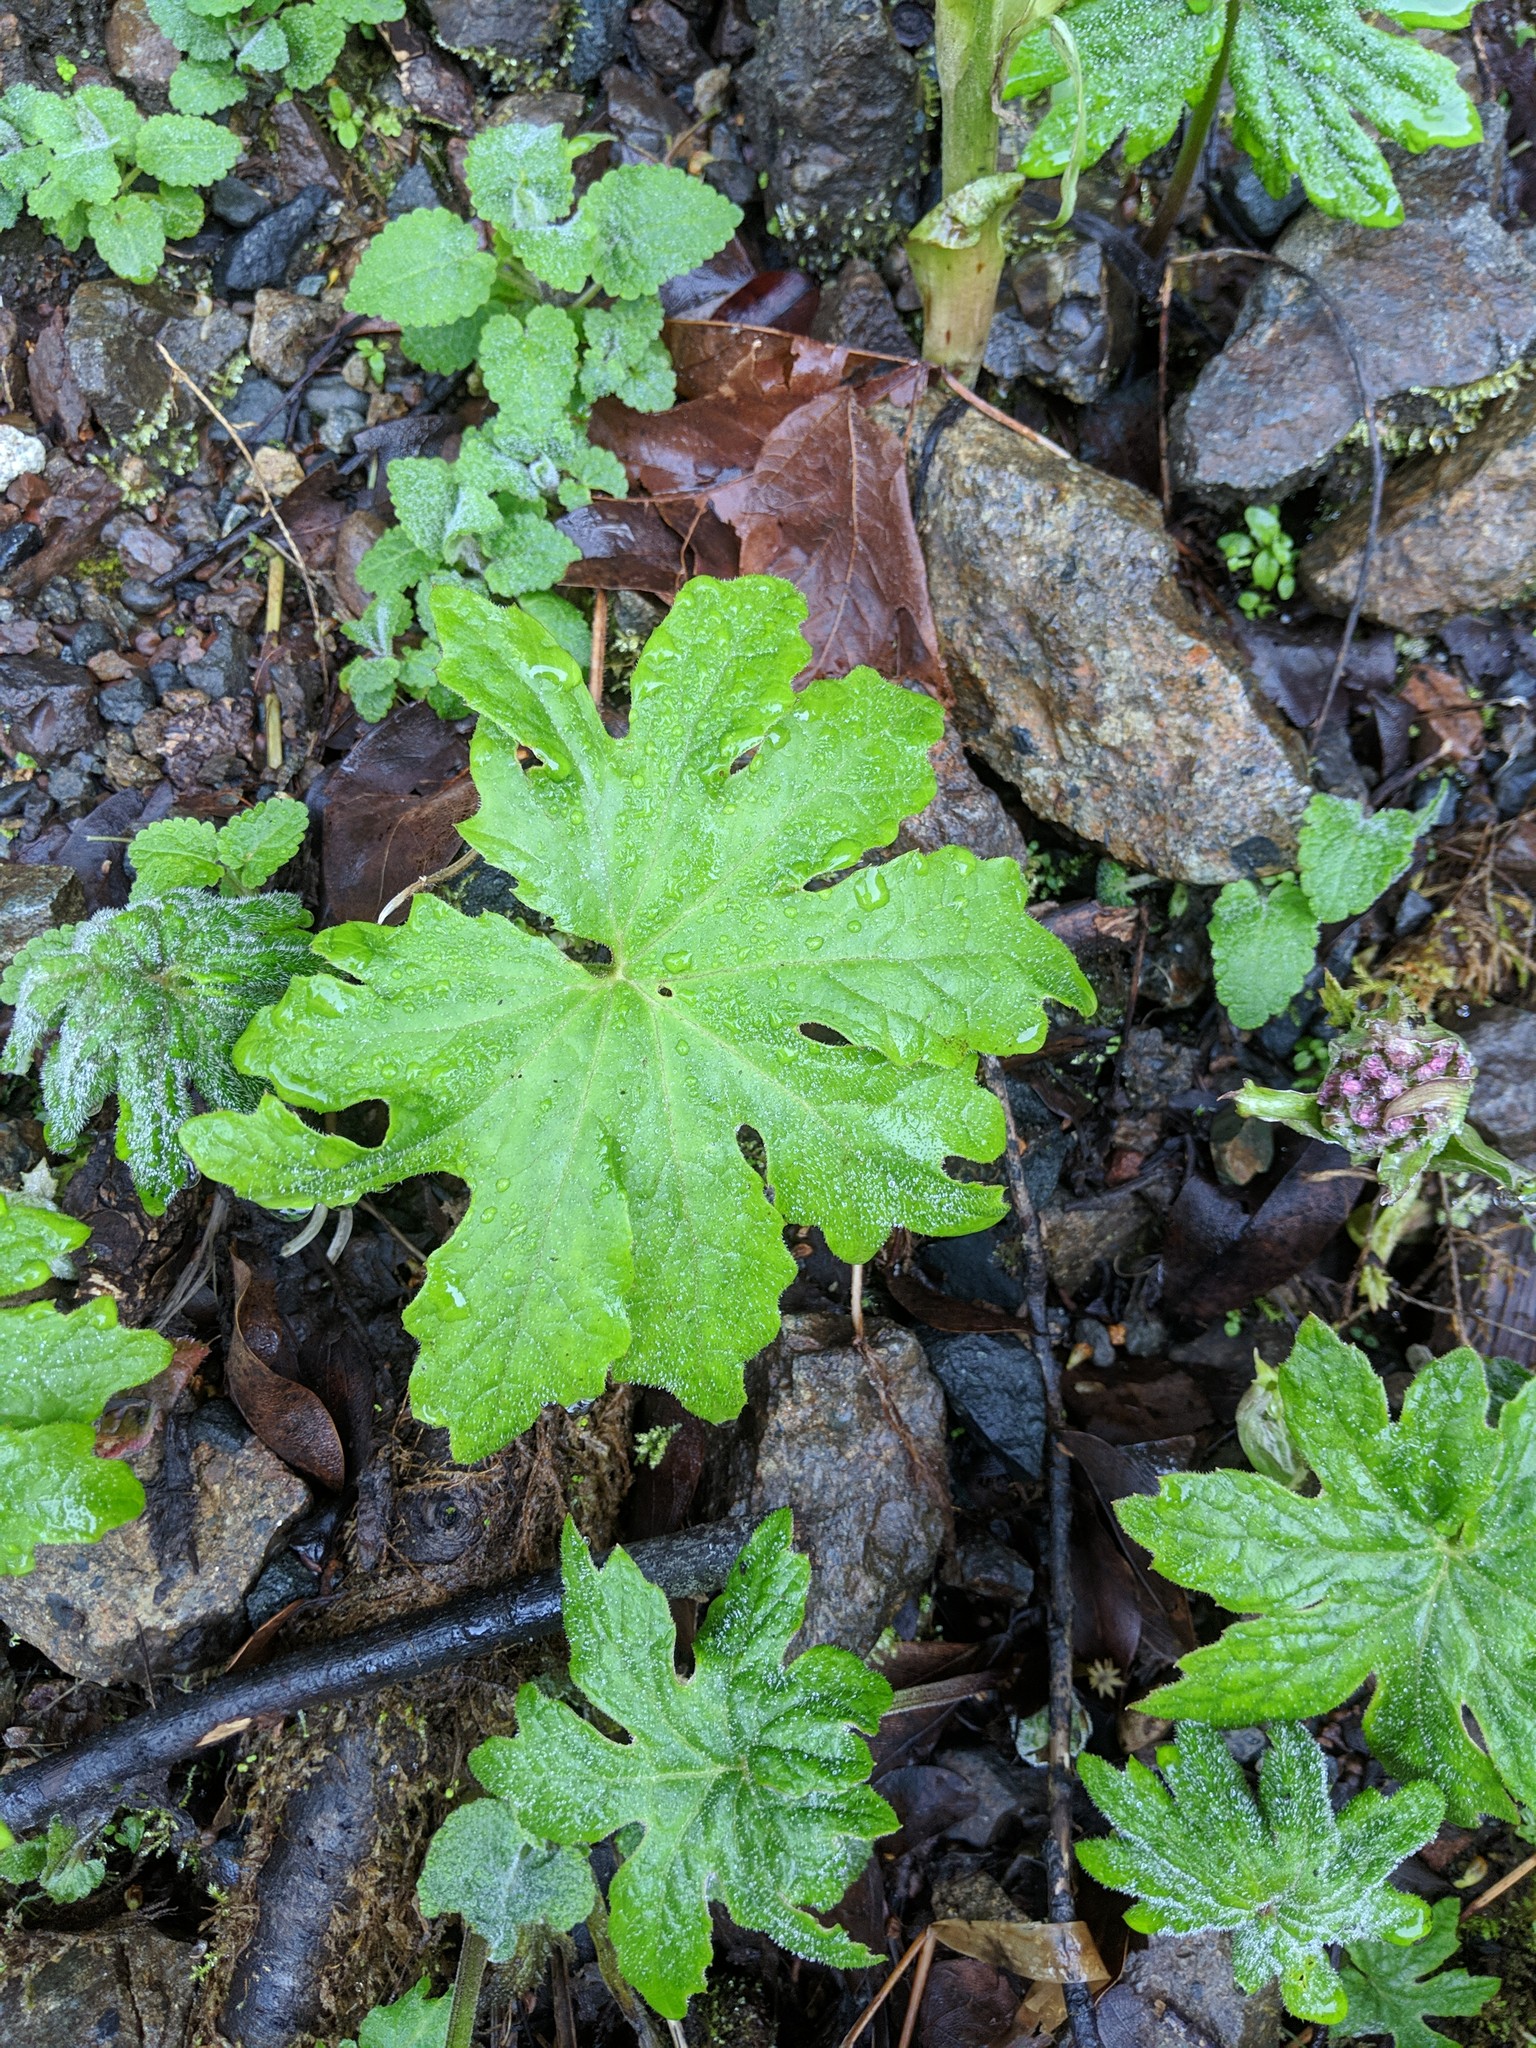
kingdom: Plantae
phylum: Tracheophyta
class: Magnoliopsida
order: Asterales
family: Asteraceae
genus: Petasites
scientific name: Petasites frigidus
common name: Arctic butterbur
